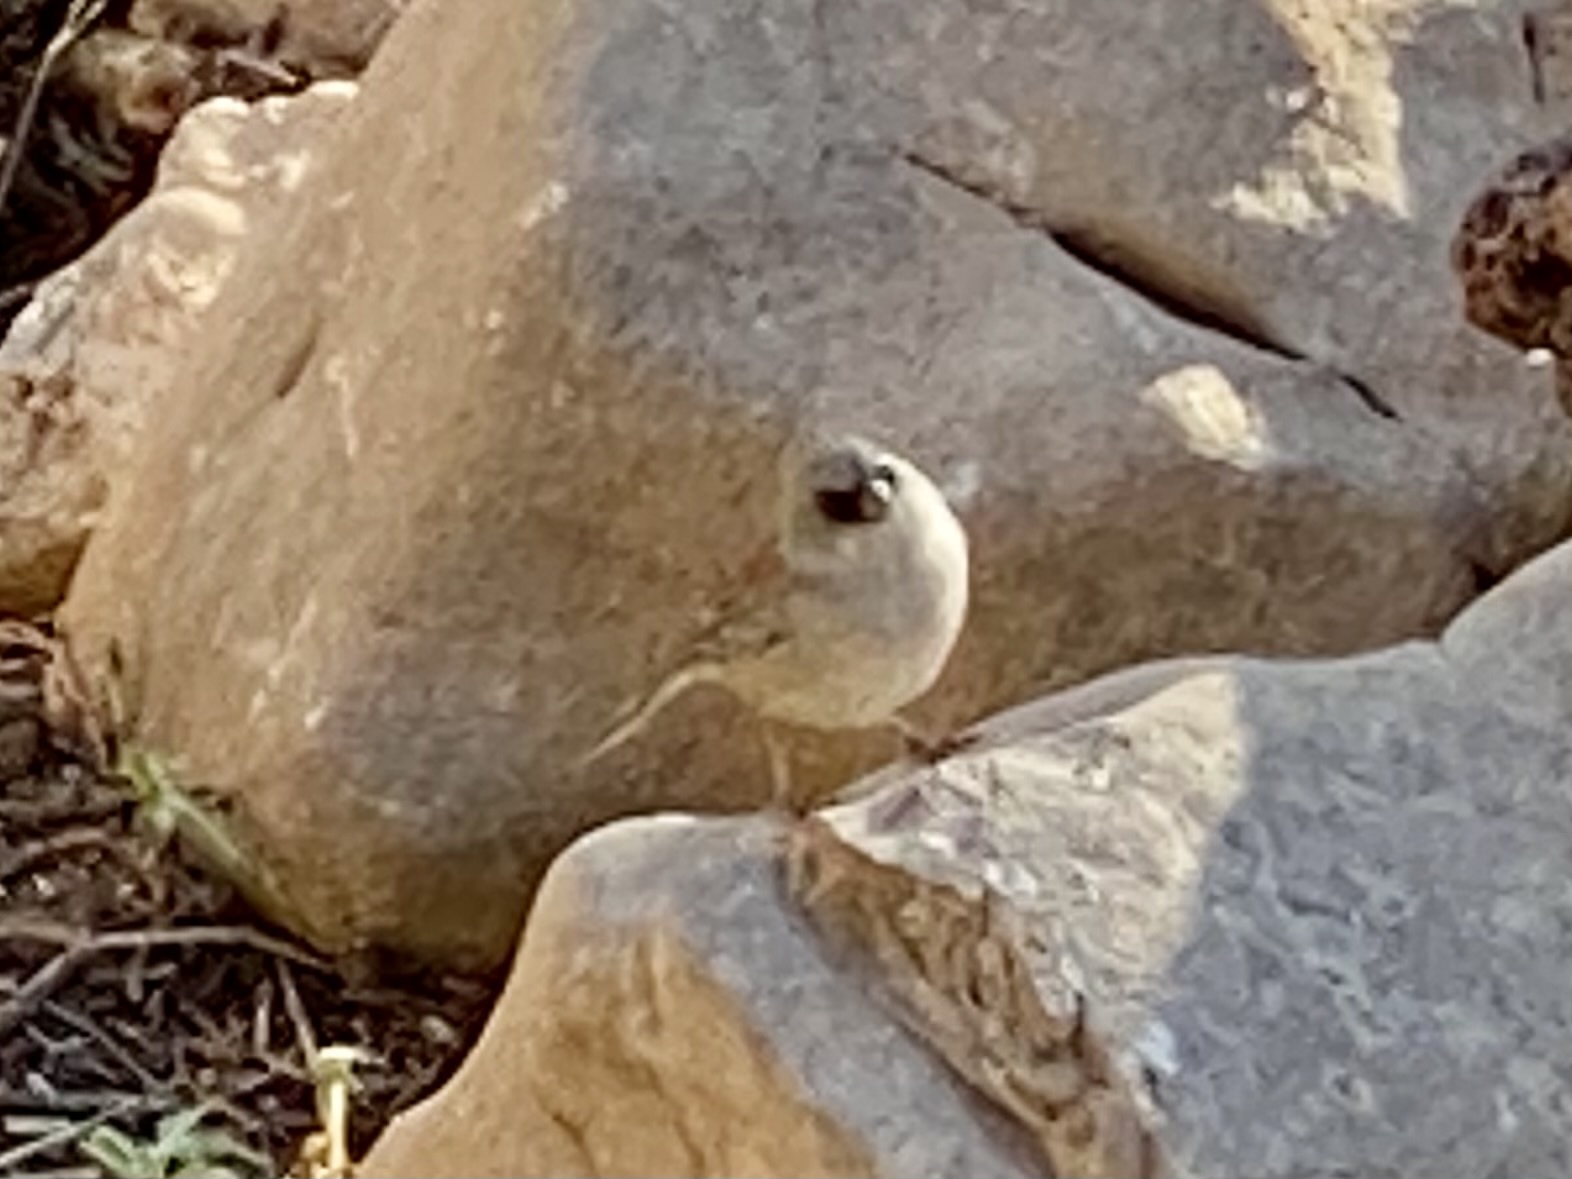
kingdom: Animalia
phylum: Chordata
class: Aves
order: Passeriformes
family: Passerellidae
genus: Junco
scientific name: Junco hyemalis
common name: Dark-eyed junco
